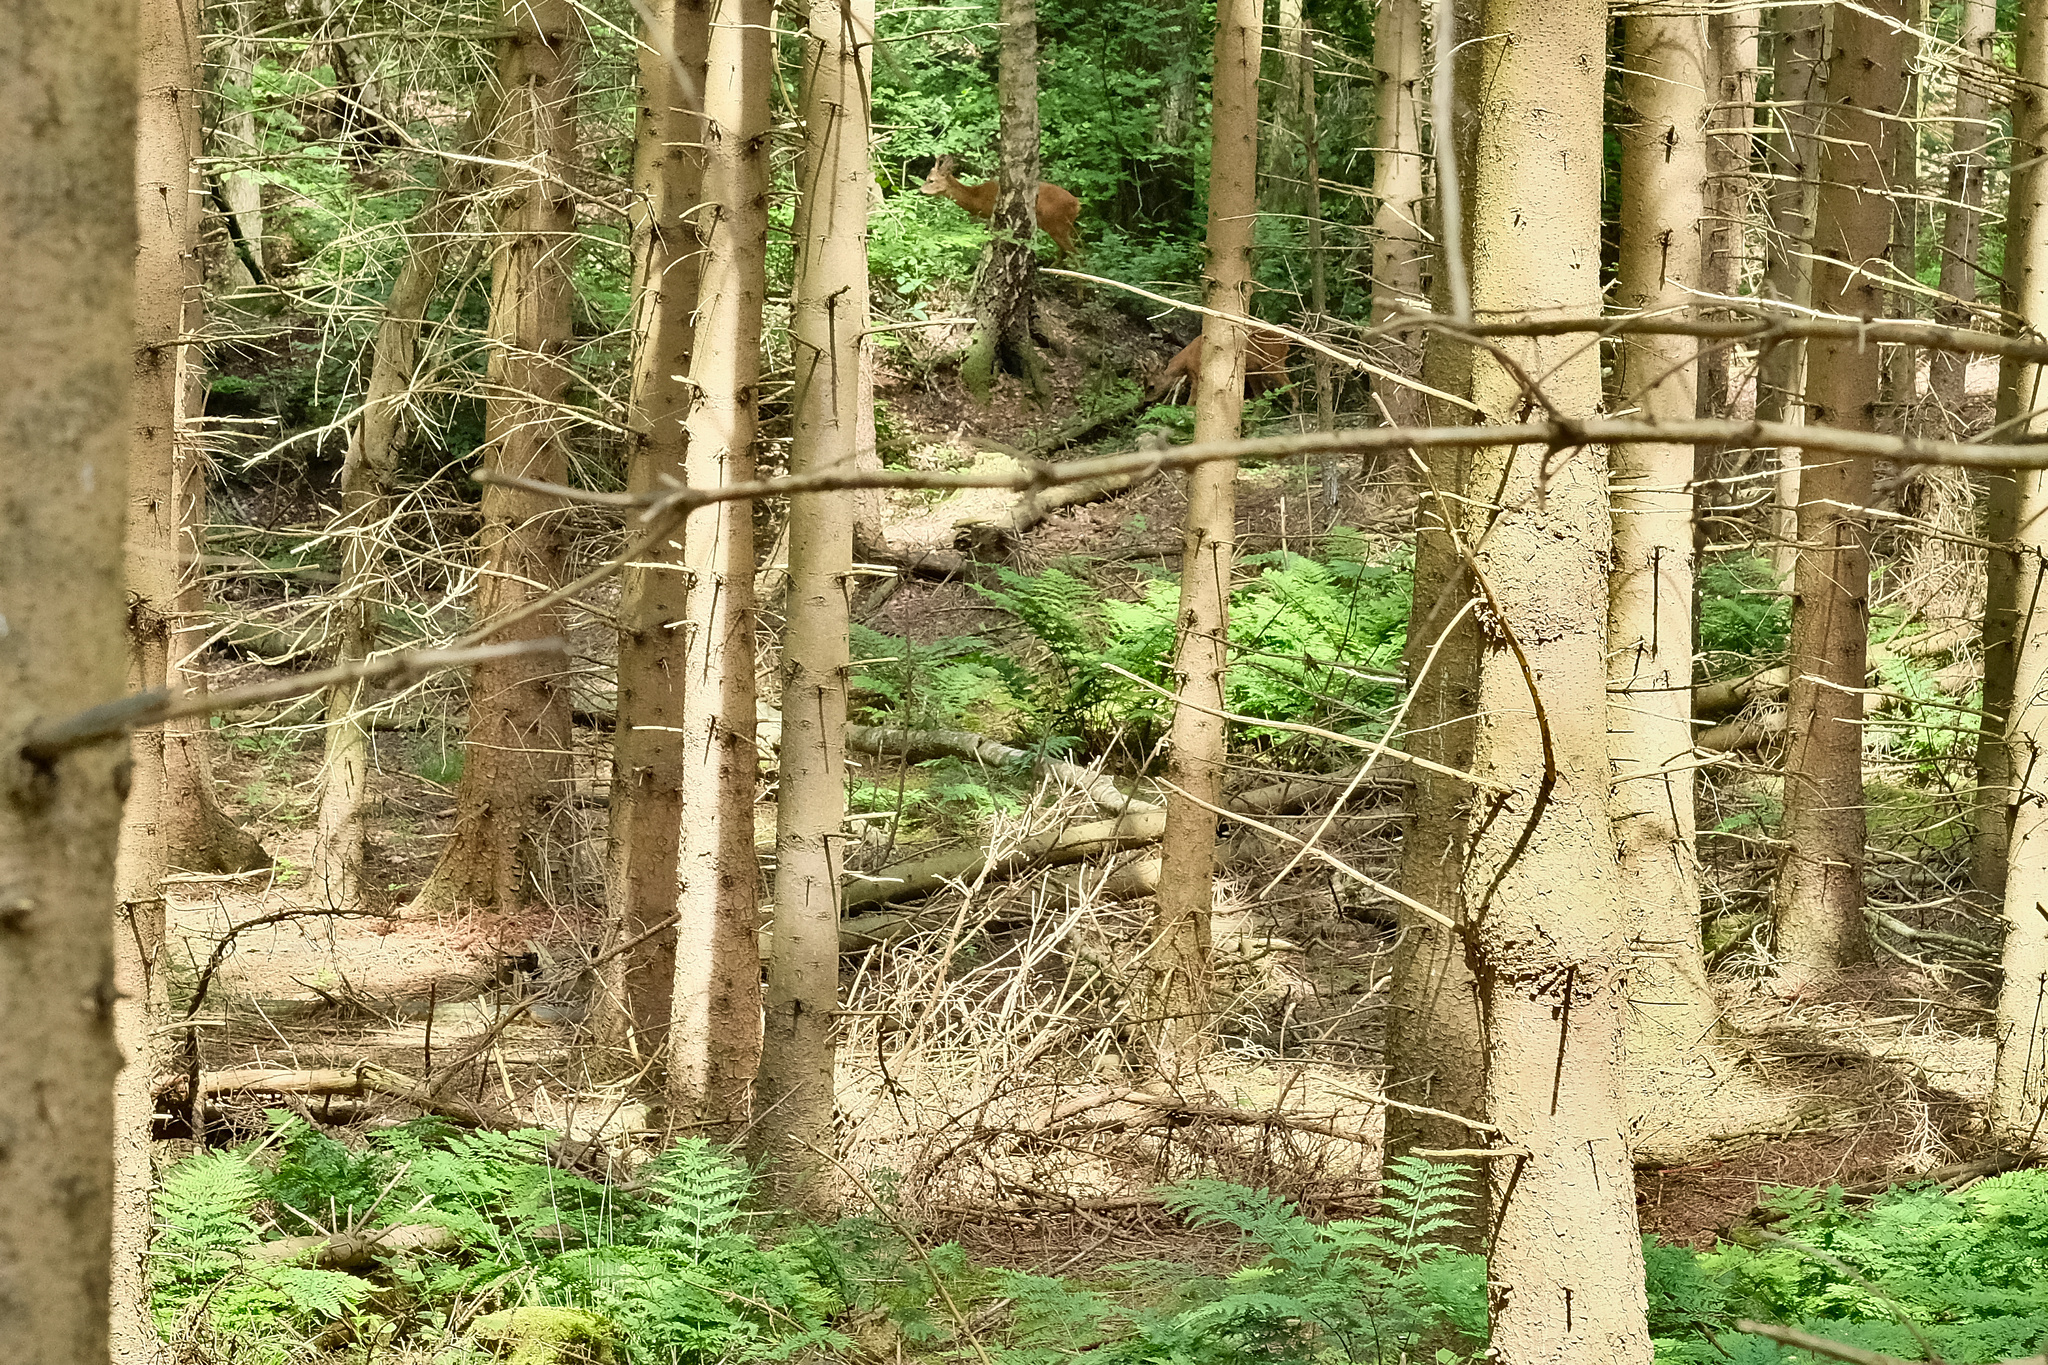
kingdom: Animalia
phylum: Chordata
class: Mammalia
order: Artiodactyla
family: Cervidae
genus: Capreolus
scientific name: Capreolus capreolus
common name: Western roe deer
